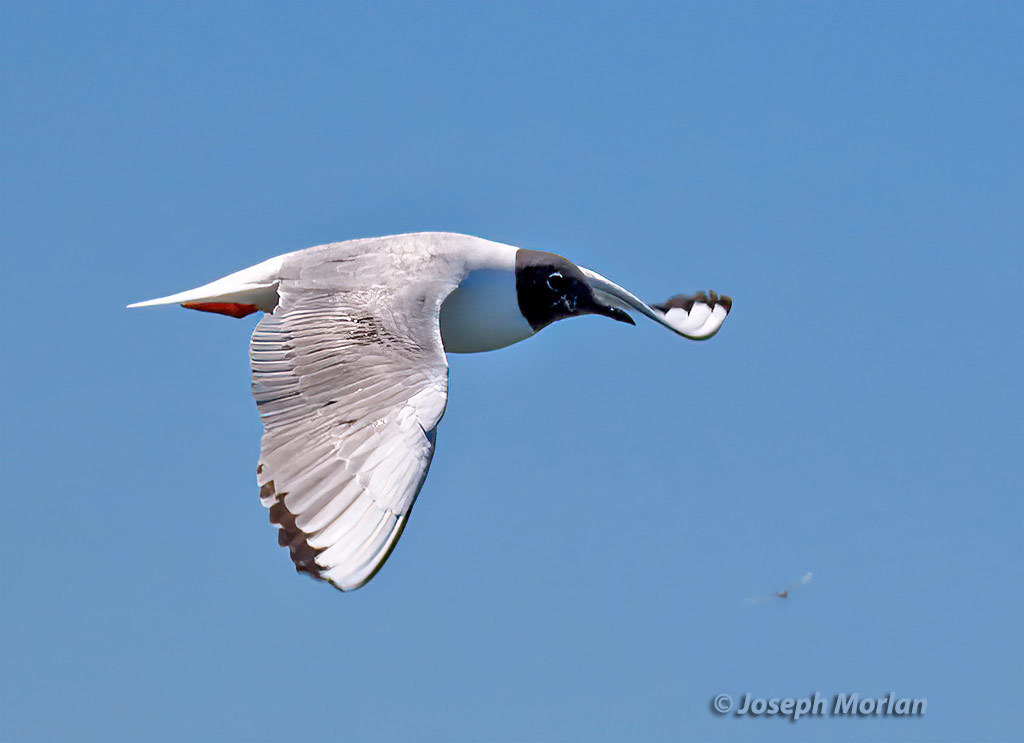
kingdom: Animalia
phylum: Chordata
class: Aves
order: Charadriiformes
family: Laridae
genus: Chroicocephalus
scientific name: Chroicocephalus philadelphia
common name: Bonaparte's gull
